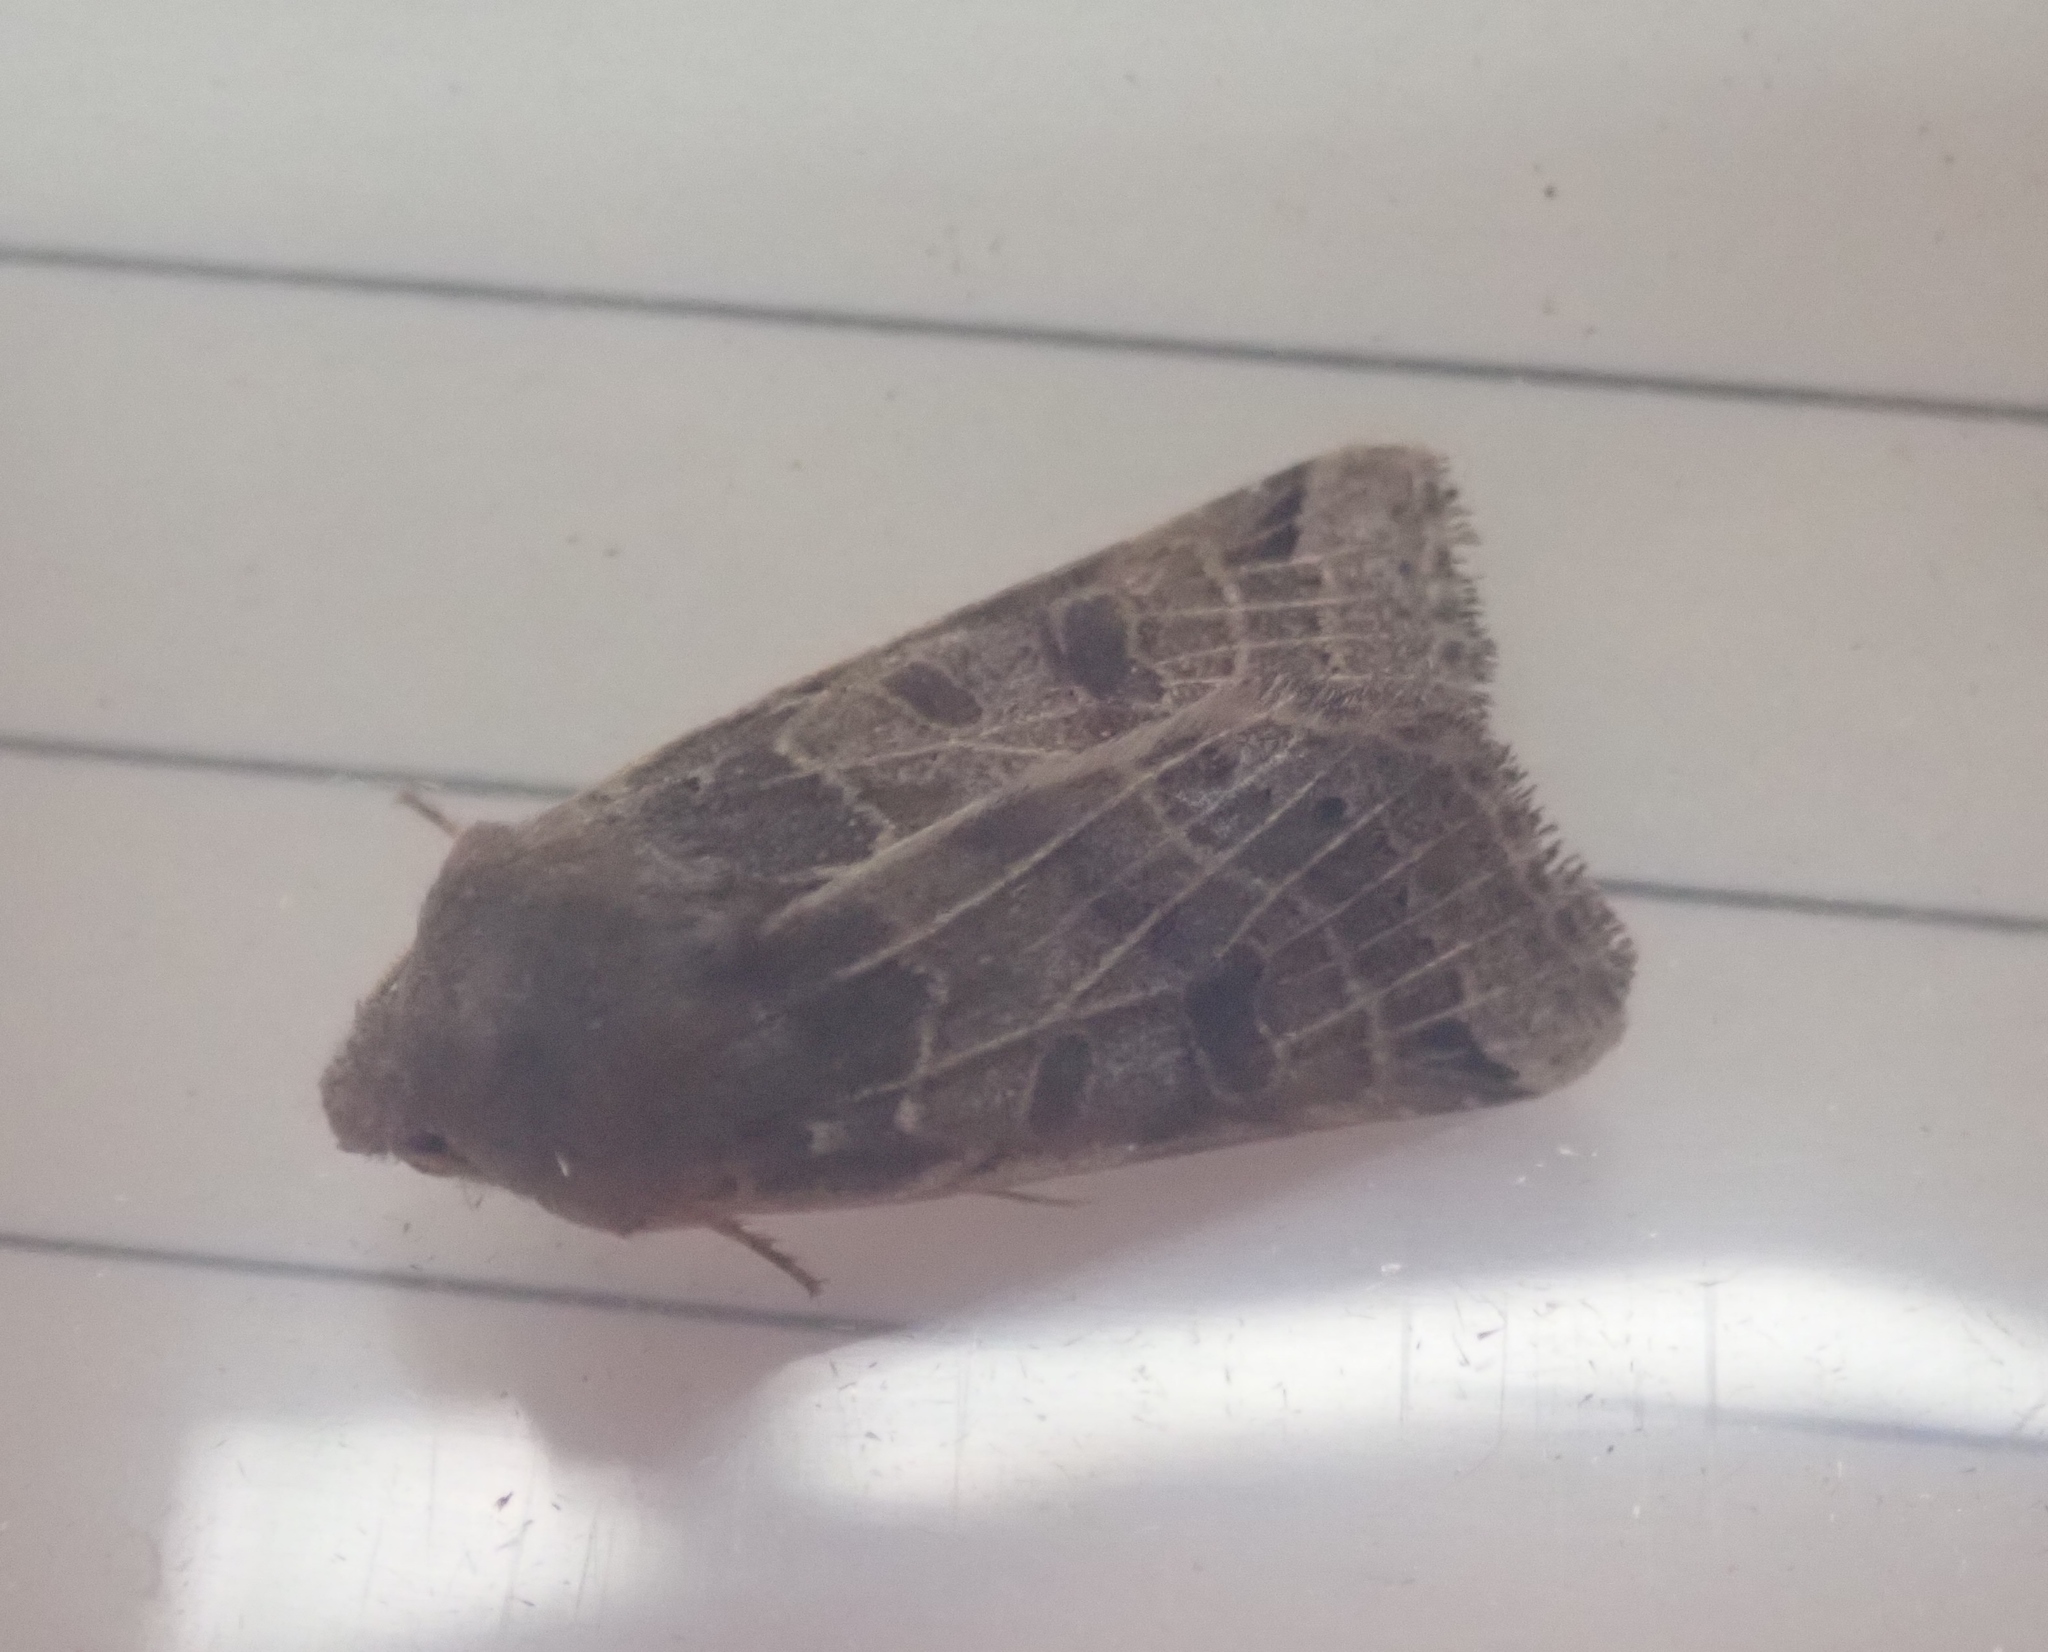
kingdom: Animalia
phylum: Arthropoda
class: Insecta
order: Lepidoptera
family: Noctuidae
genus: Agrochola
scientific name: Agrochola lunosa
